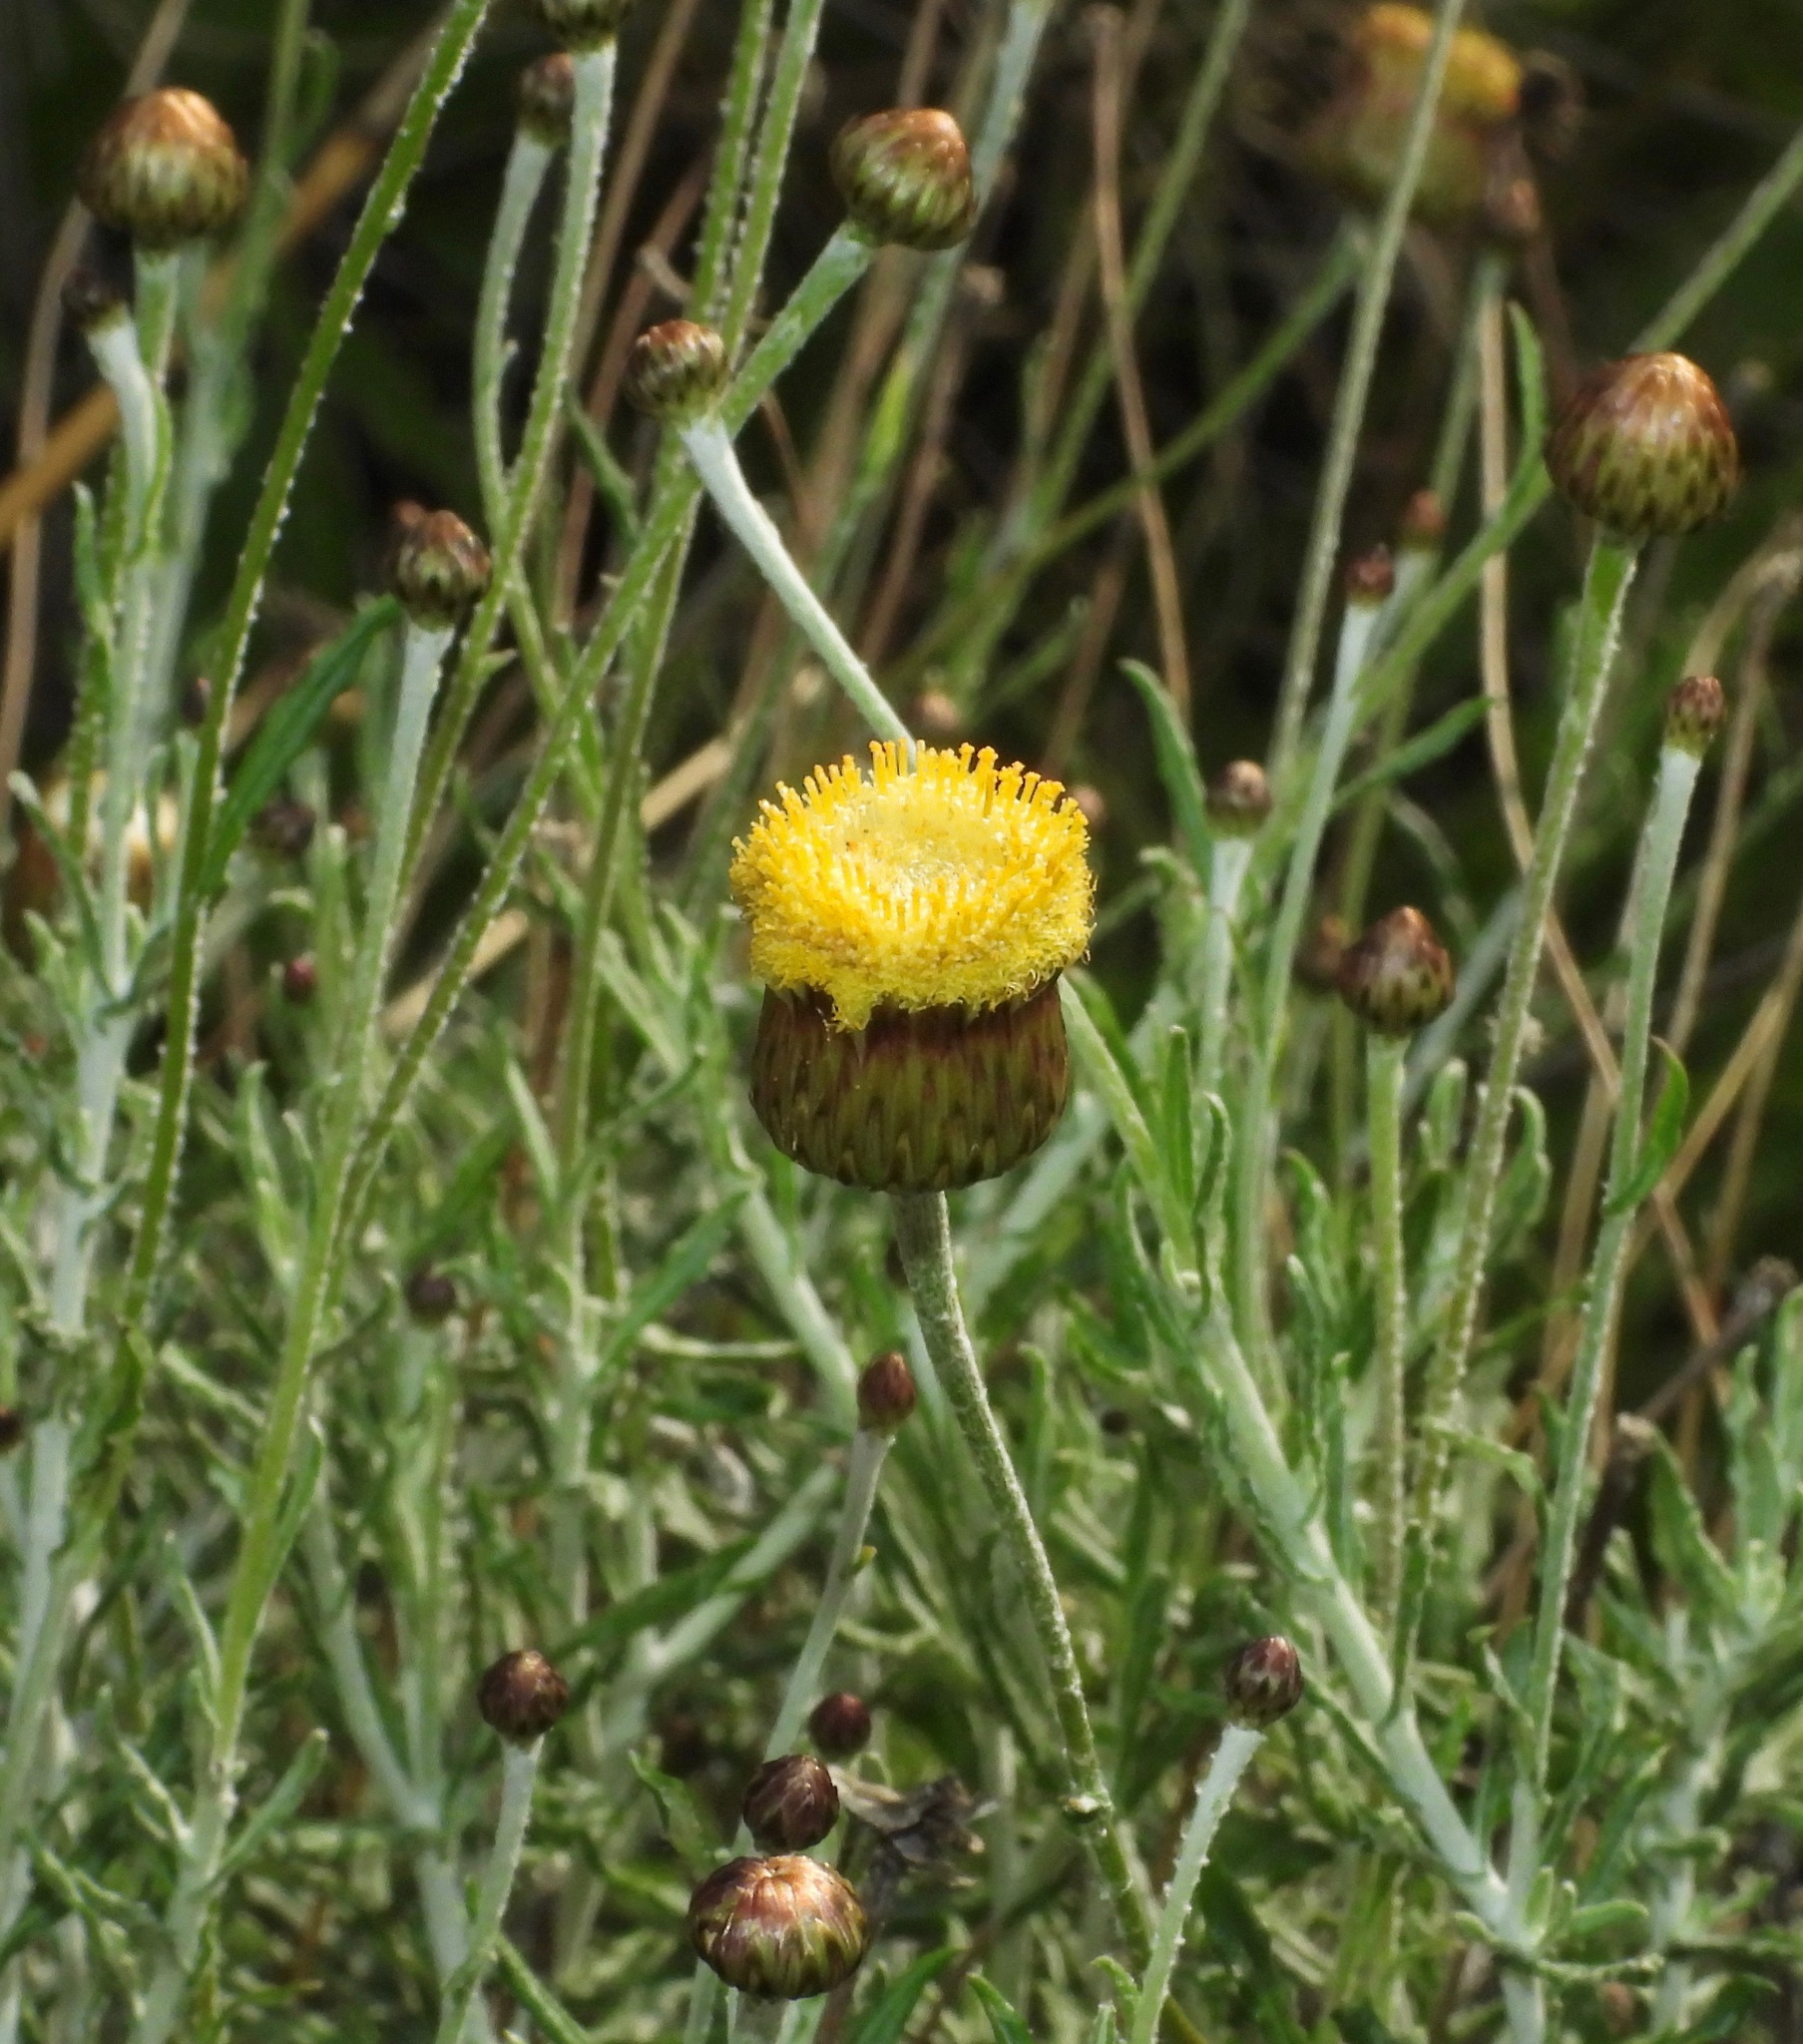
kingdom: Plantae
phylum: Tracheophyta
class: Magnoliopsida
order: Asterales
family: Asteraceae
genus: Phagnalon
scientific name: Phagnalon graecum
